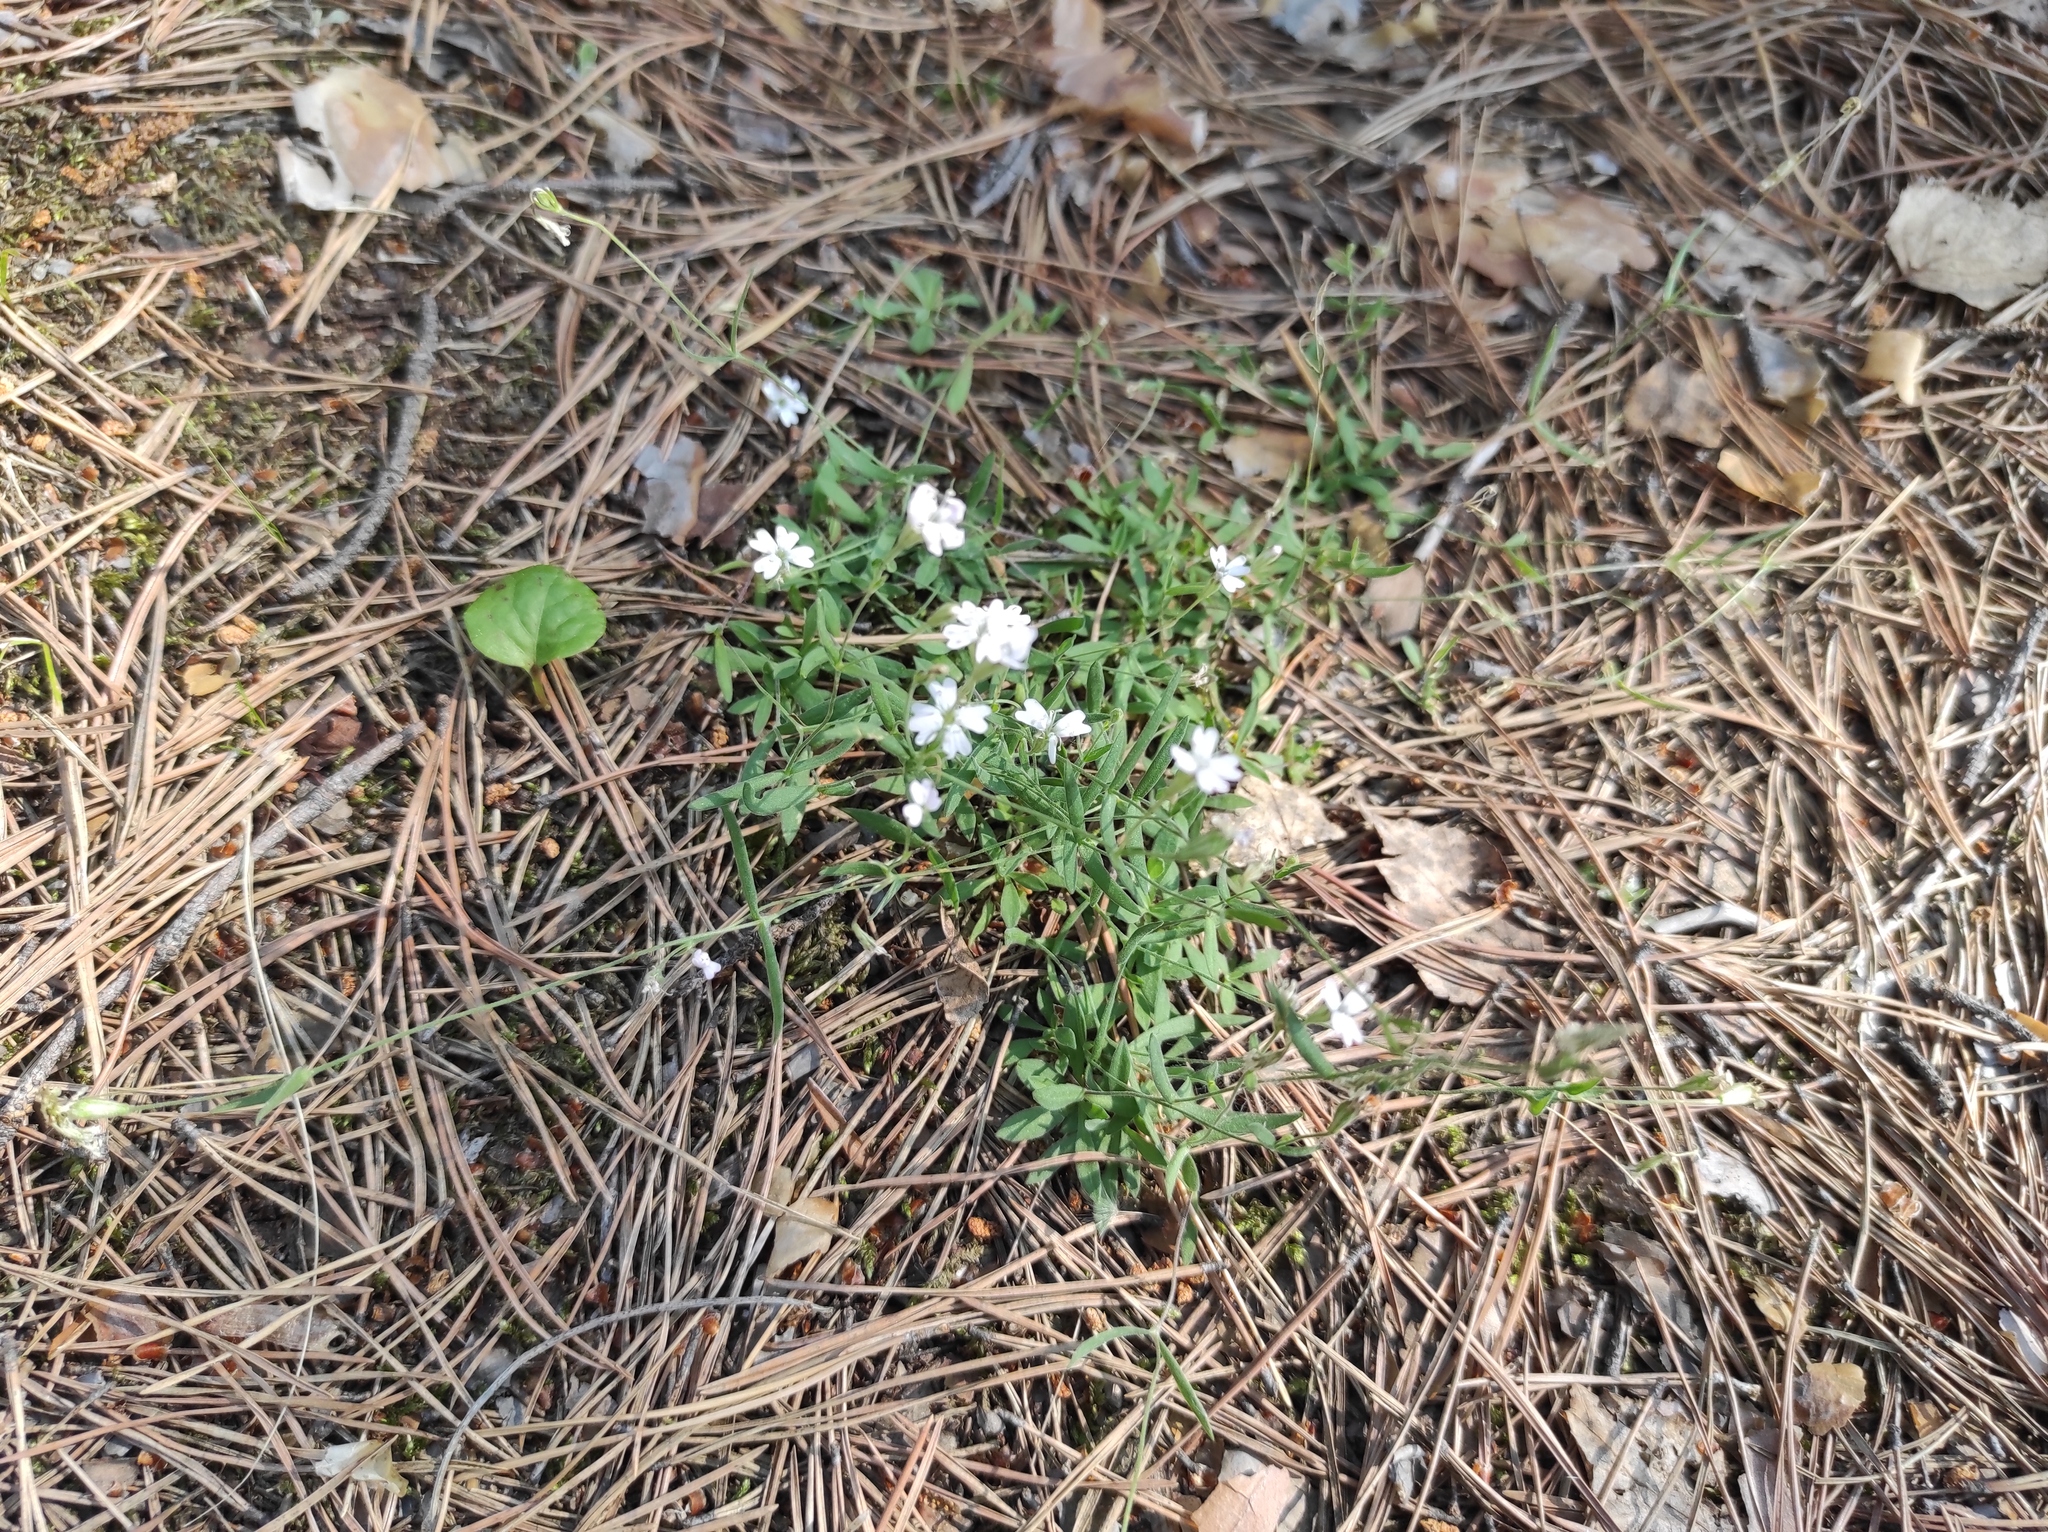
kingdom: Plantae
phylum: Tracheophyta
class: Magnoliopsida
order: Caryophyllales
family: Caryophyllaceae
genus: Silene
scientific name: Silene orientalimongolica
